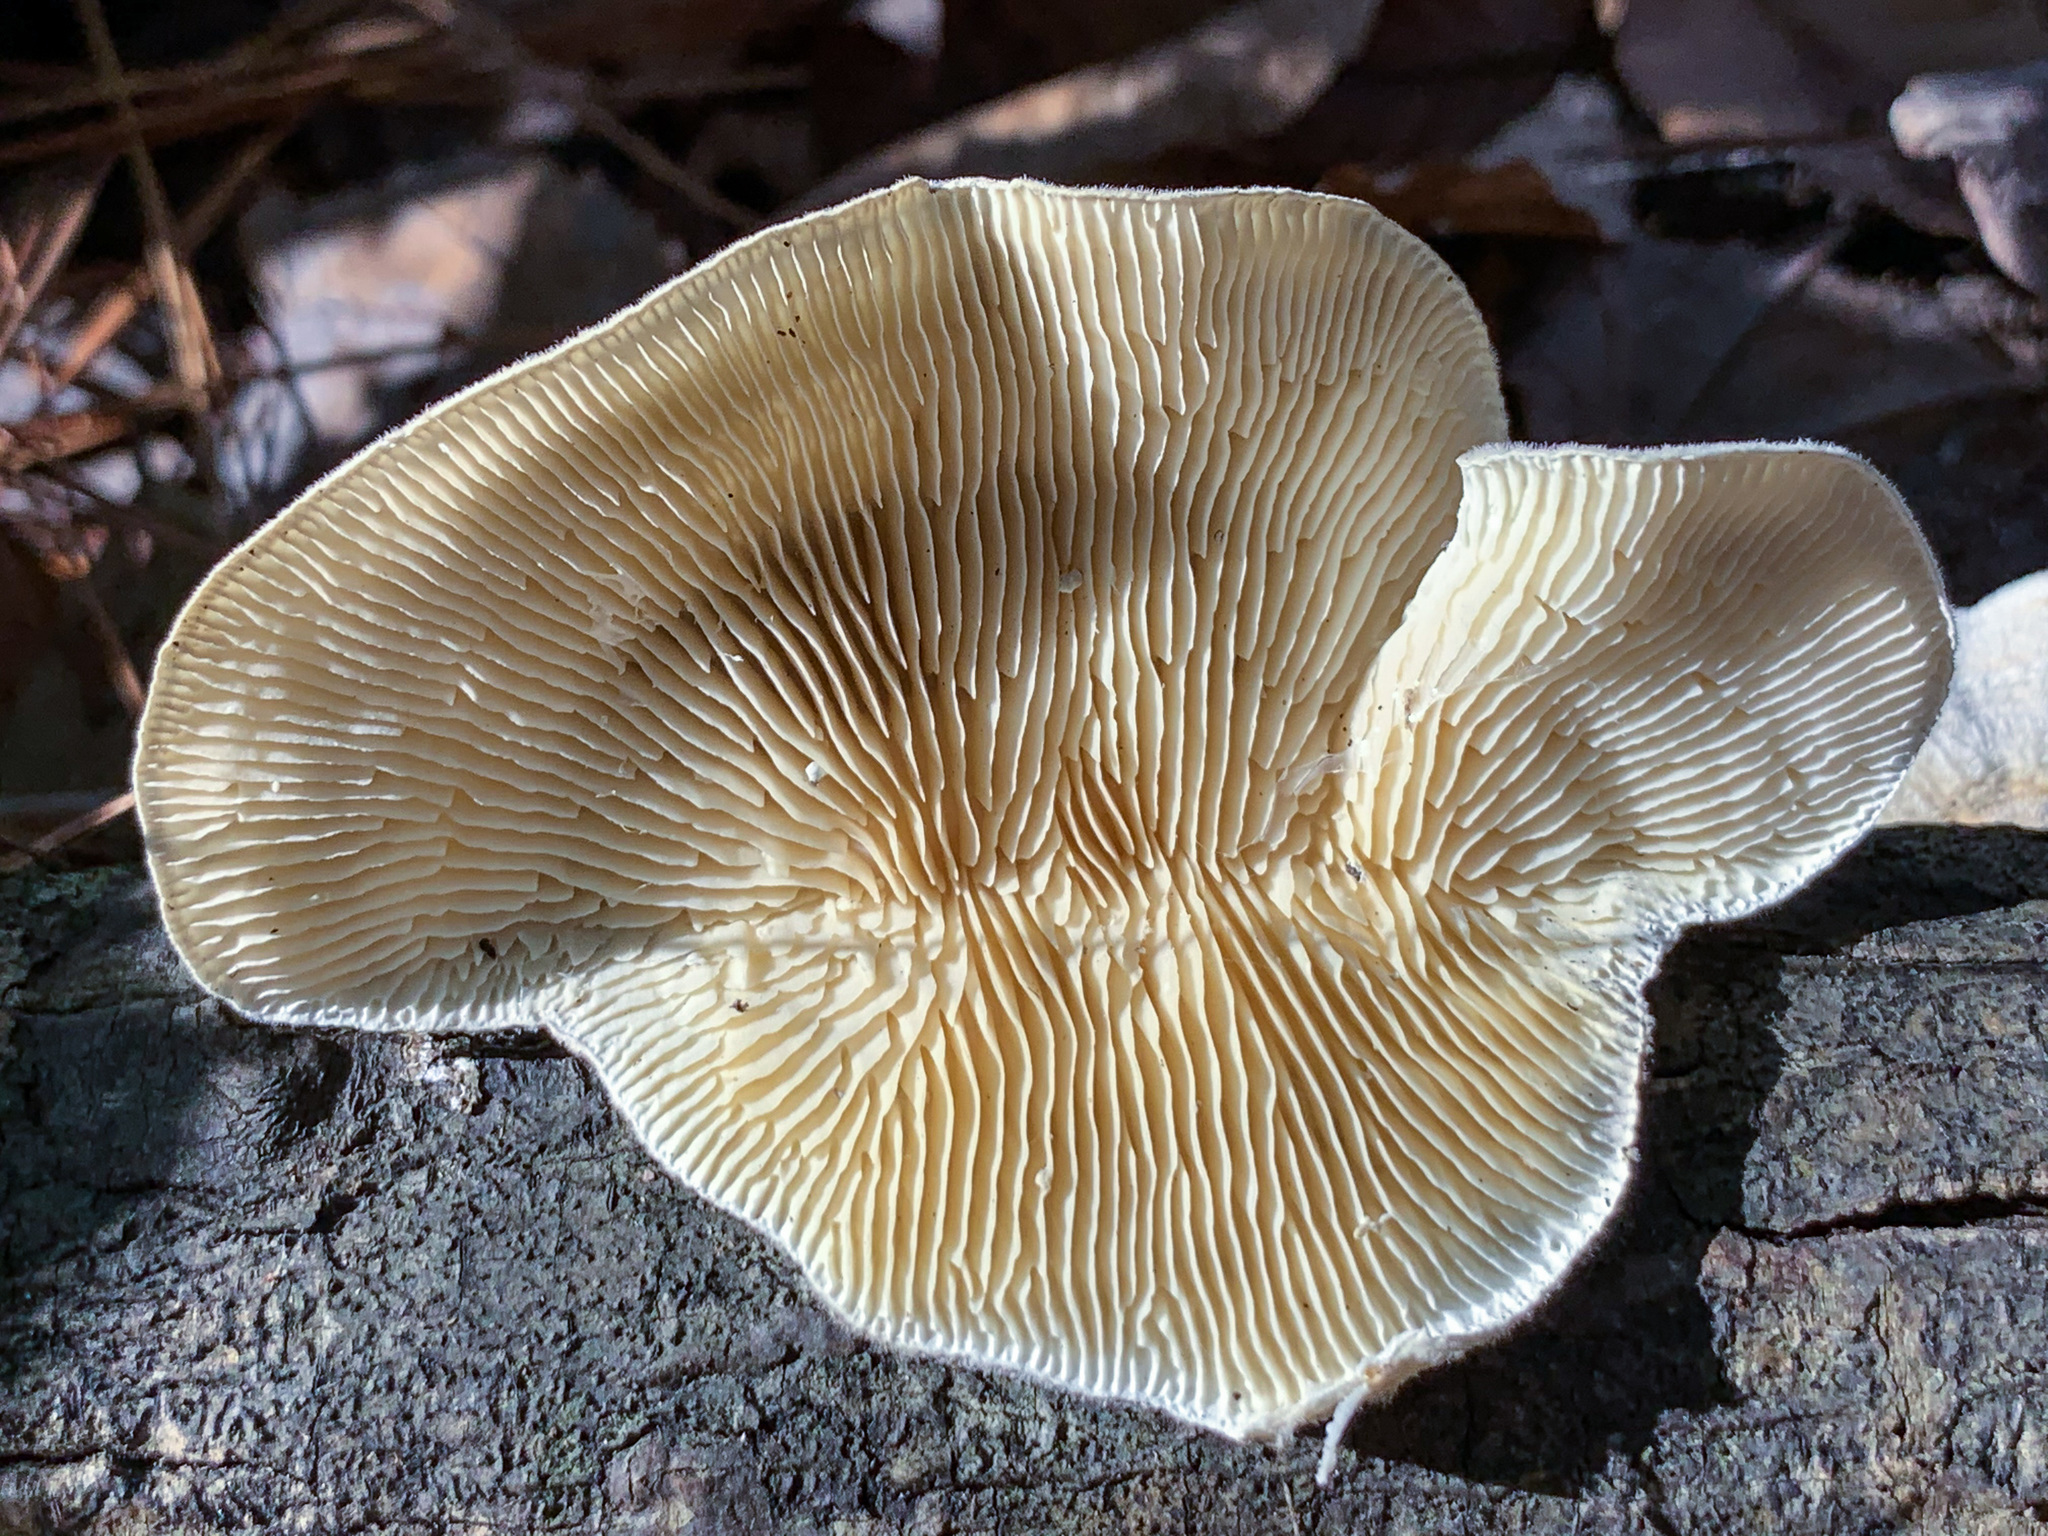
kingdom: Fungi
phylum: Basidiomycota
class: Agaricomycetes
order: Polyporales
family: Polyporaceae
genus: Lenzites
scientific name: Lenzites betulinus
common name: Birch mazegill
